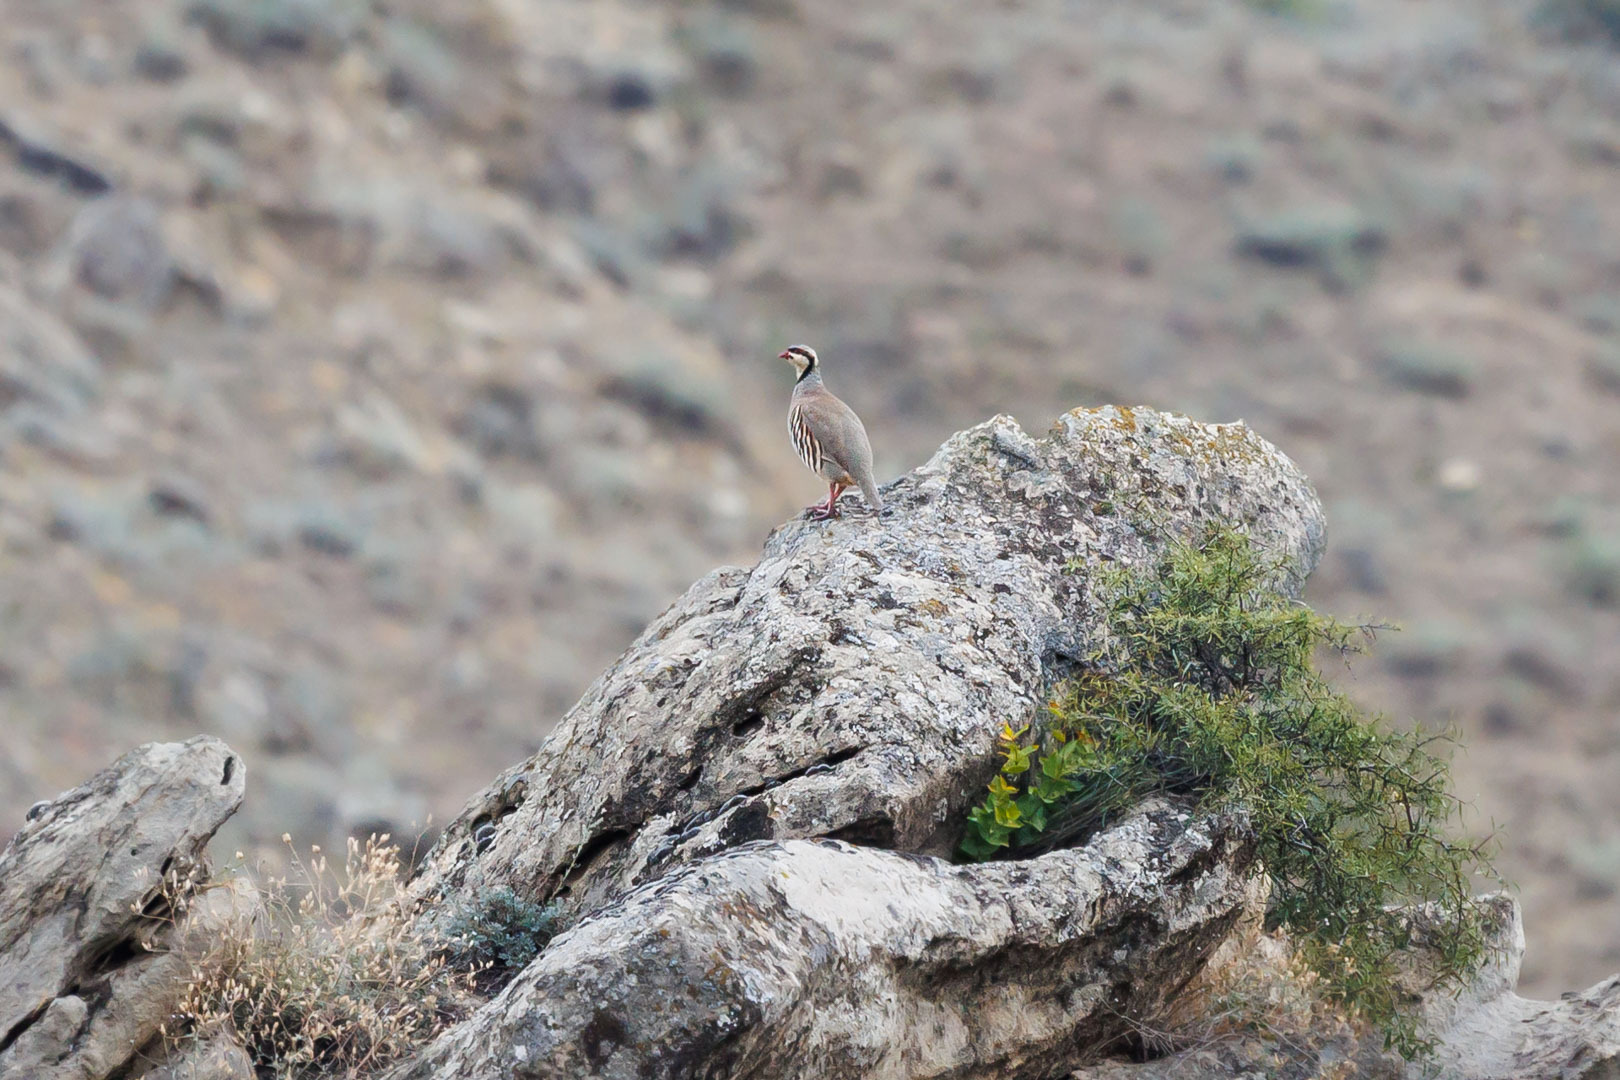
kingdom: Animalia
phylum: Chordata
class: Aves
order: Galliformes
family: Phasianidae
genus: Alectoris
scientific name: Alectoris chukar
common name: Chukar
